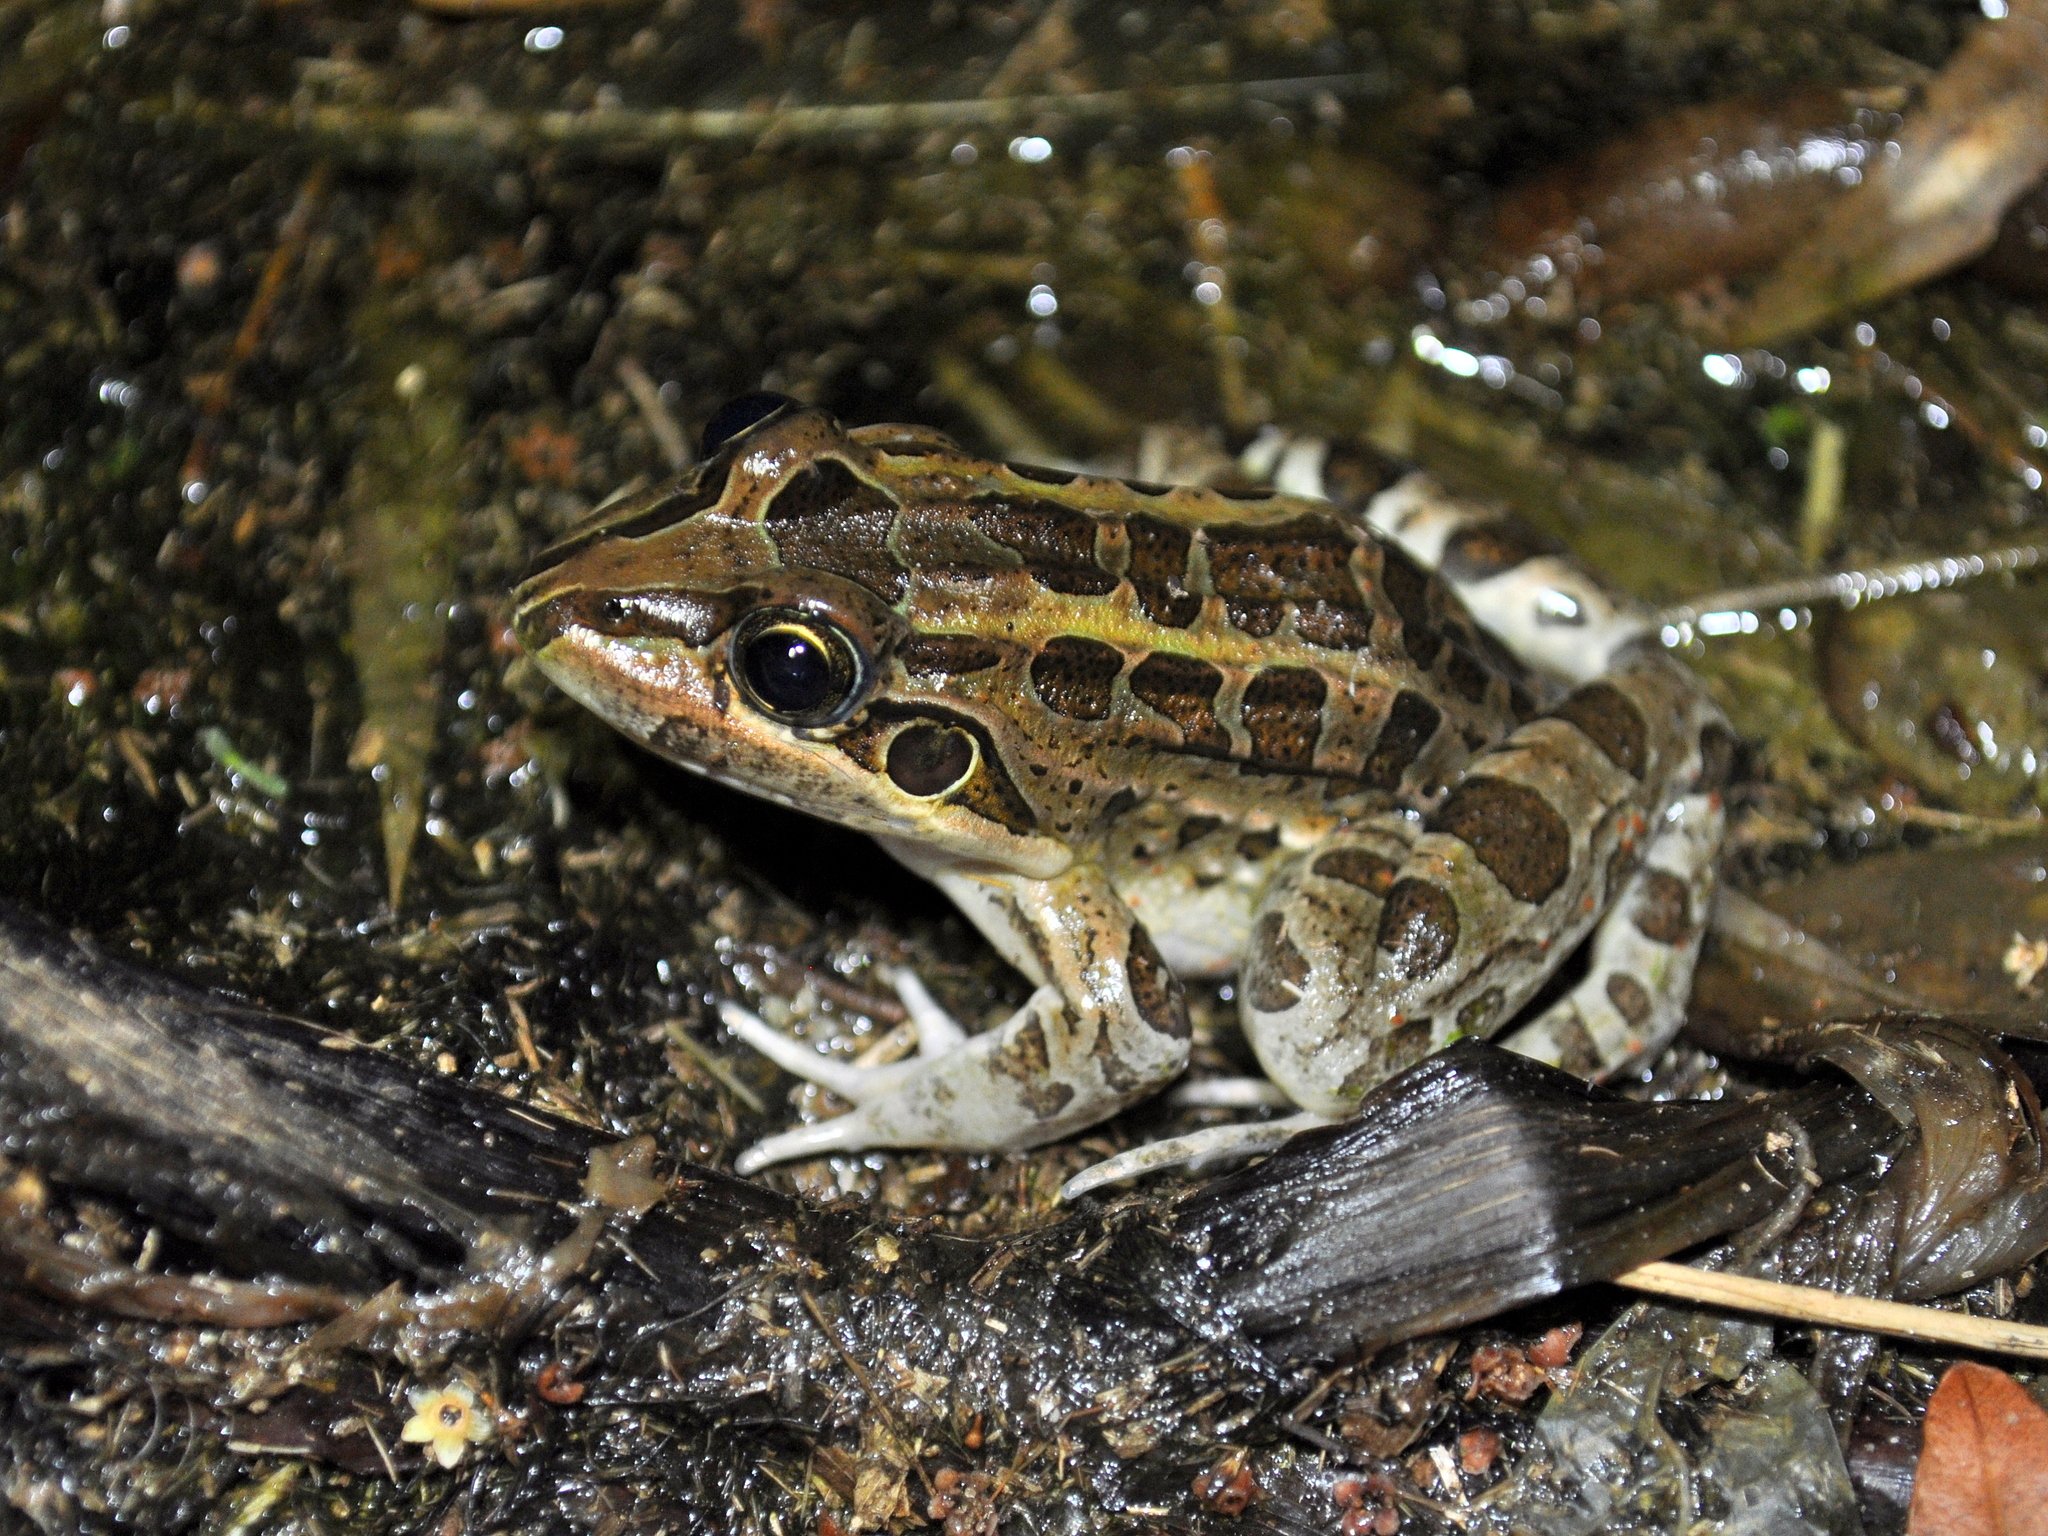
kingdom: Animalia
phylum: Chordata
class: Amphibia
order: Anura
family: Leptodactylidae
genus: Leptodactylus
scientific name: Leptodactylus luctator
